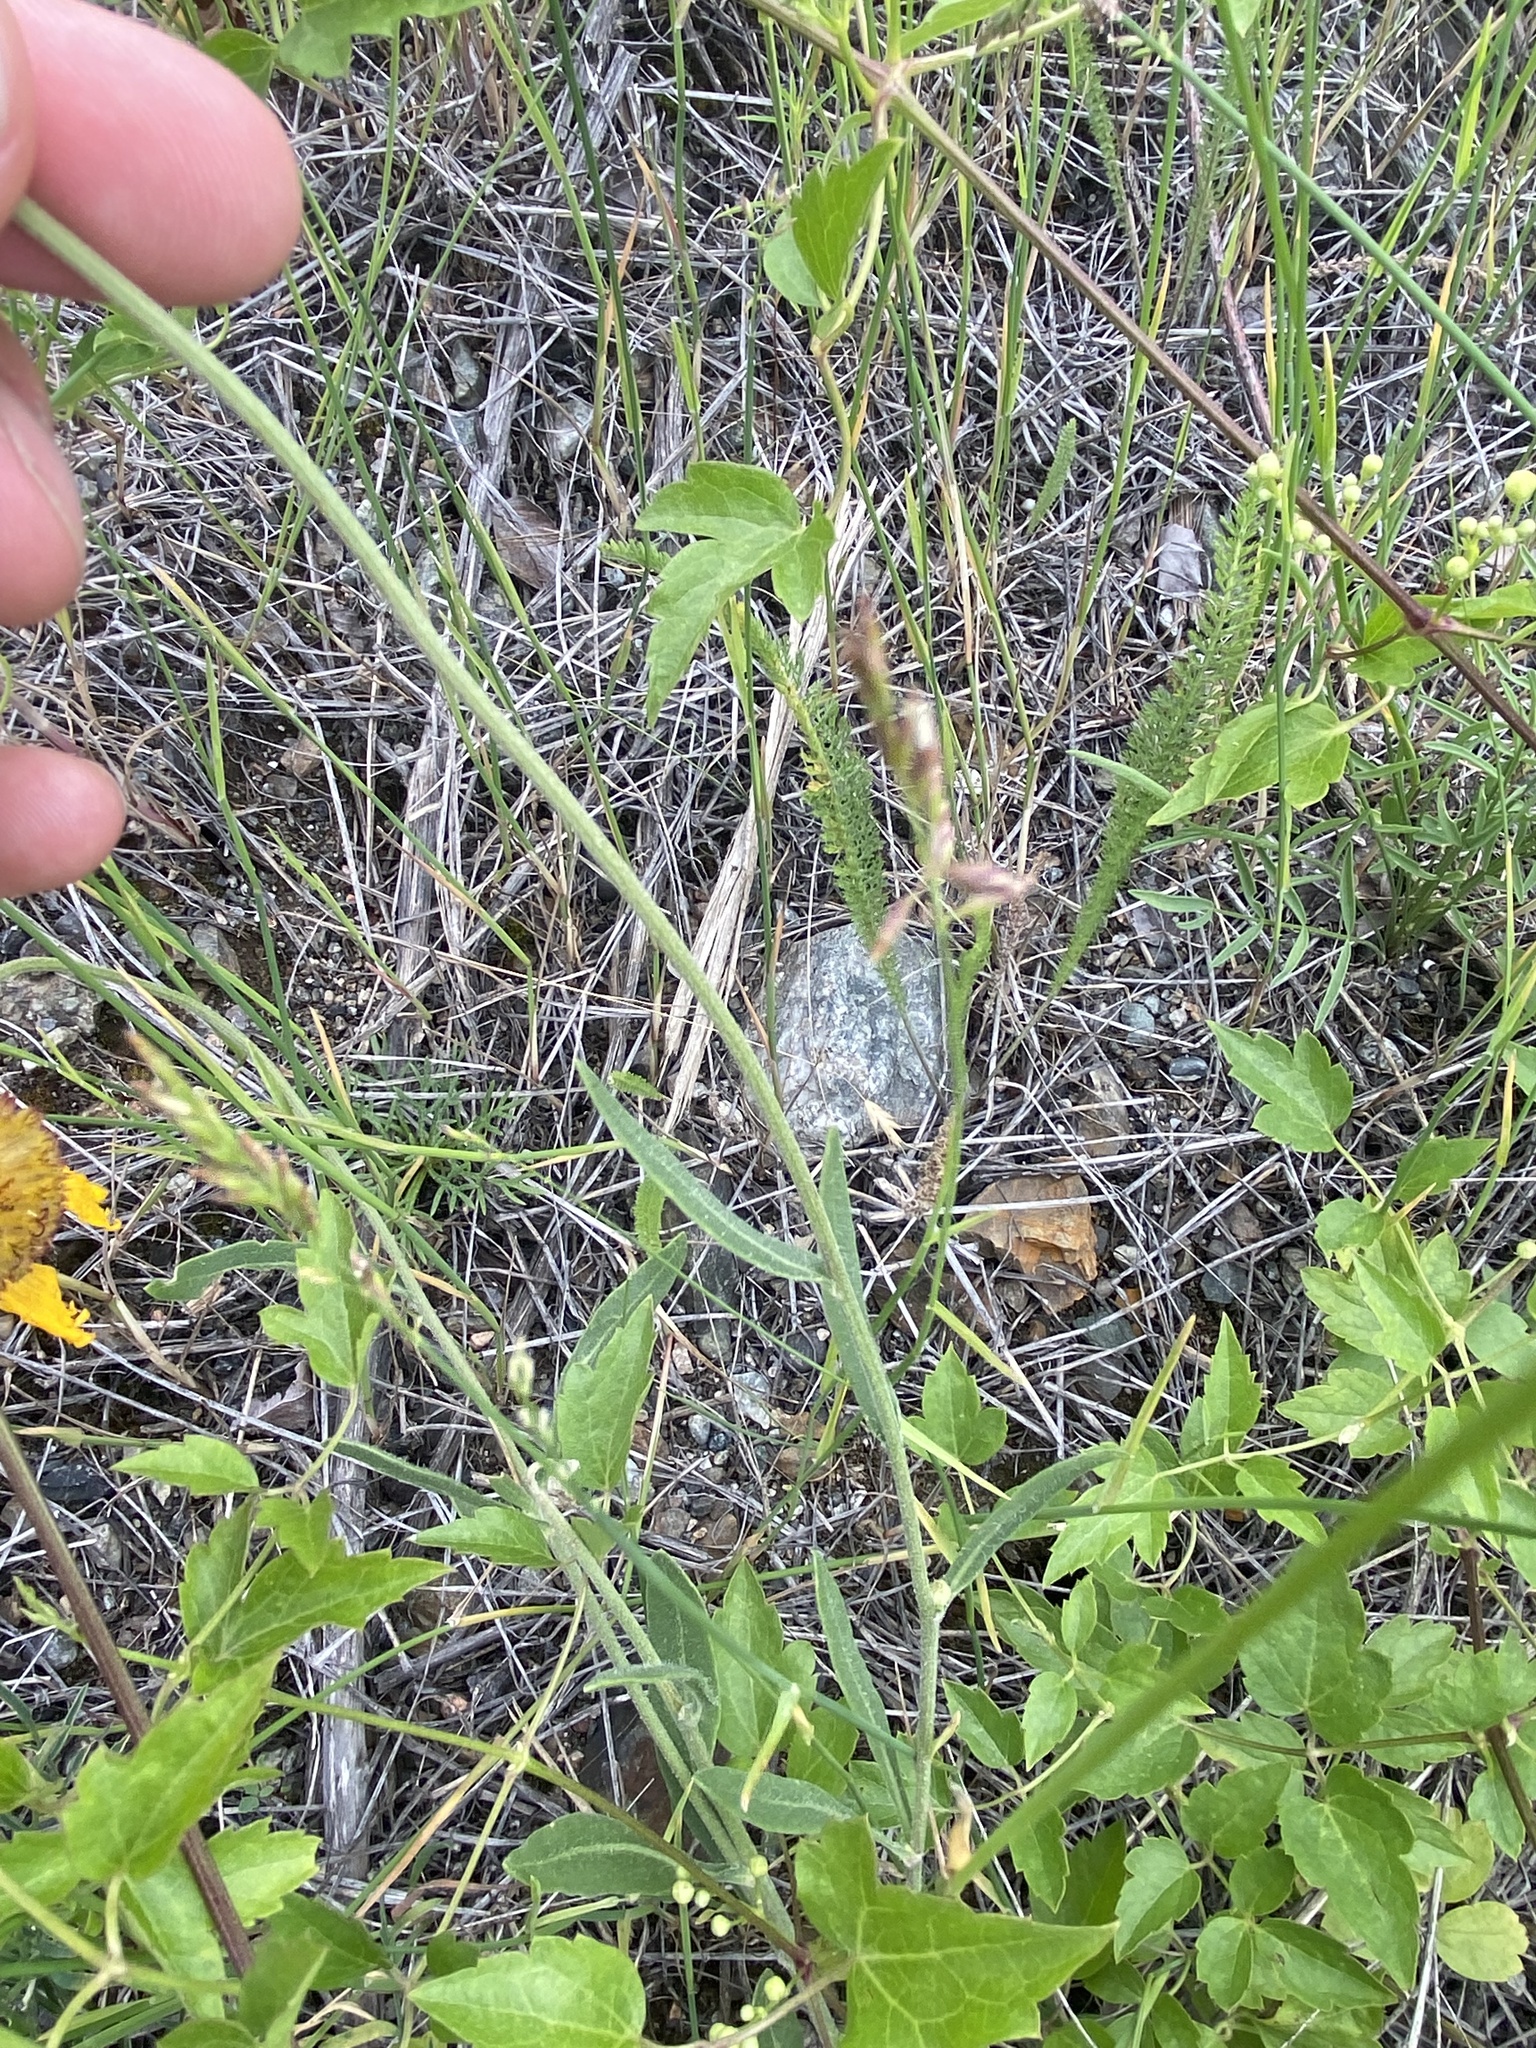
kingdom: Plantae
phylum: Tracheophyta
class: Magnoliopsida
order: Asterales
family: Asteraceae
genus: Gaillardia
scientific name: Gaillardia aristata
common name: Blanket-flower
